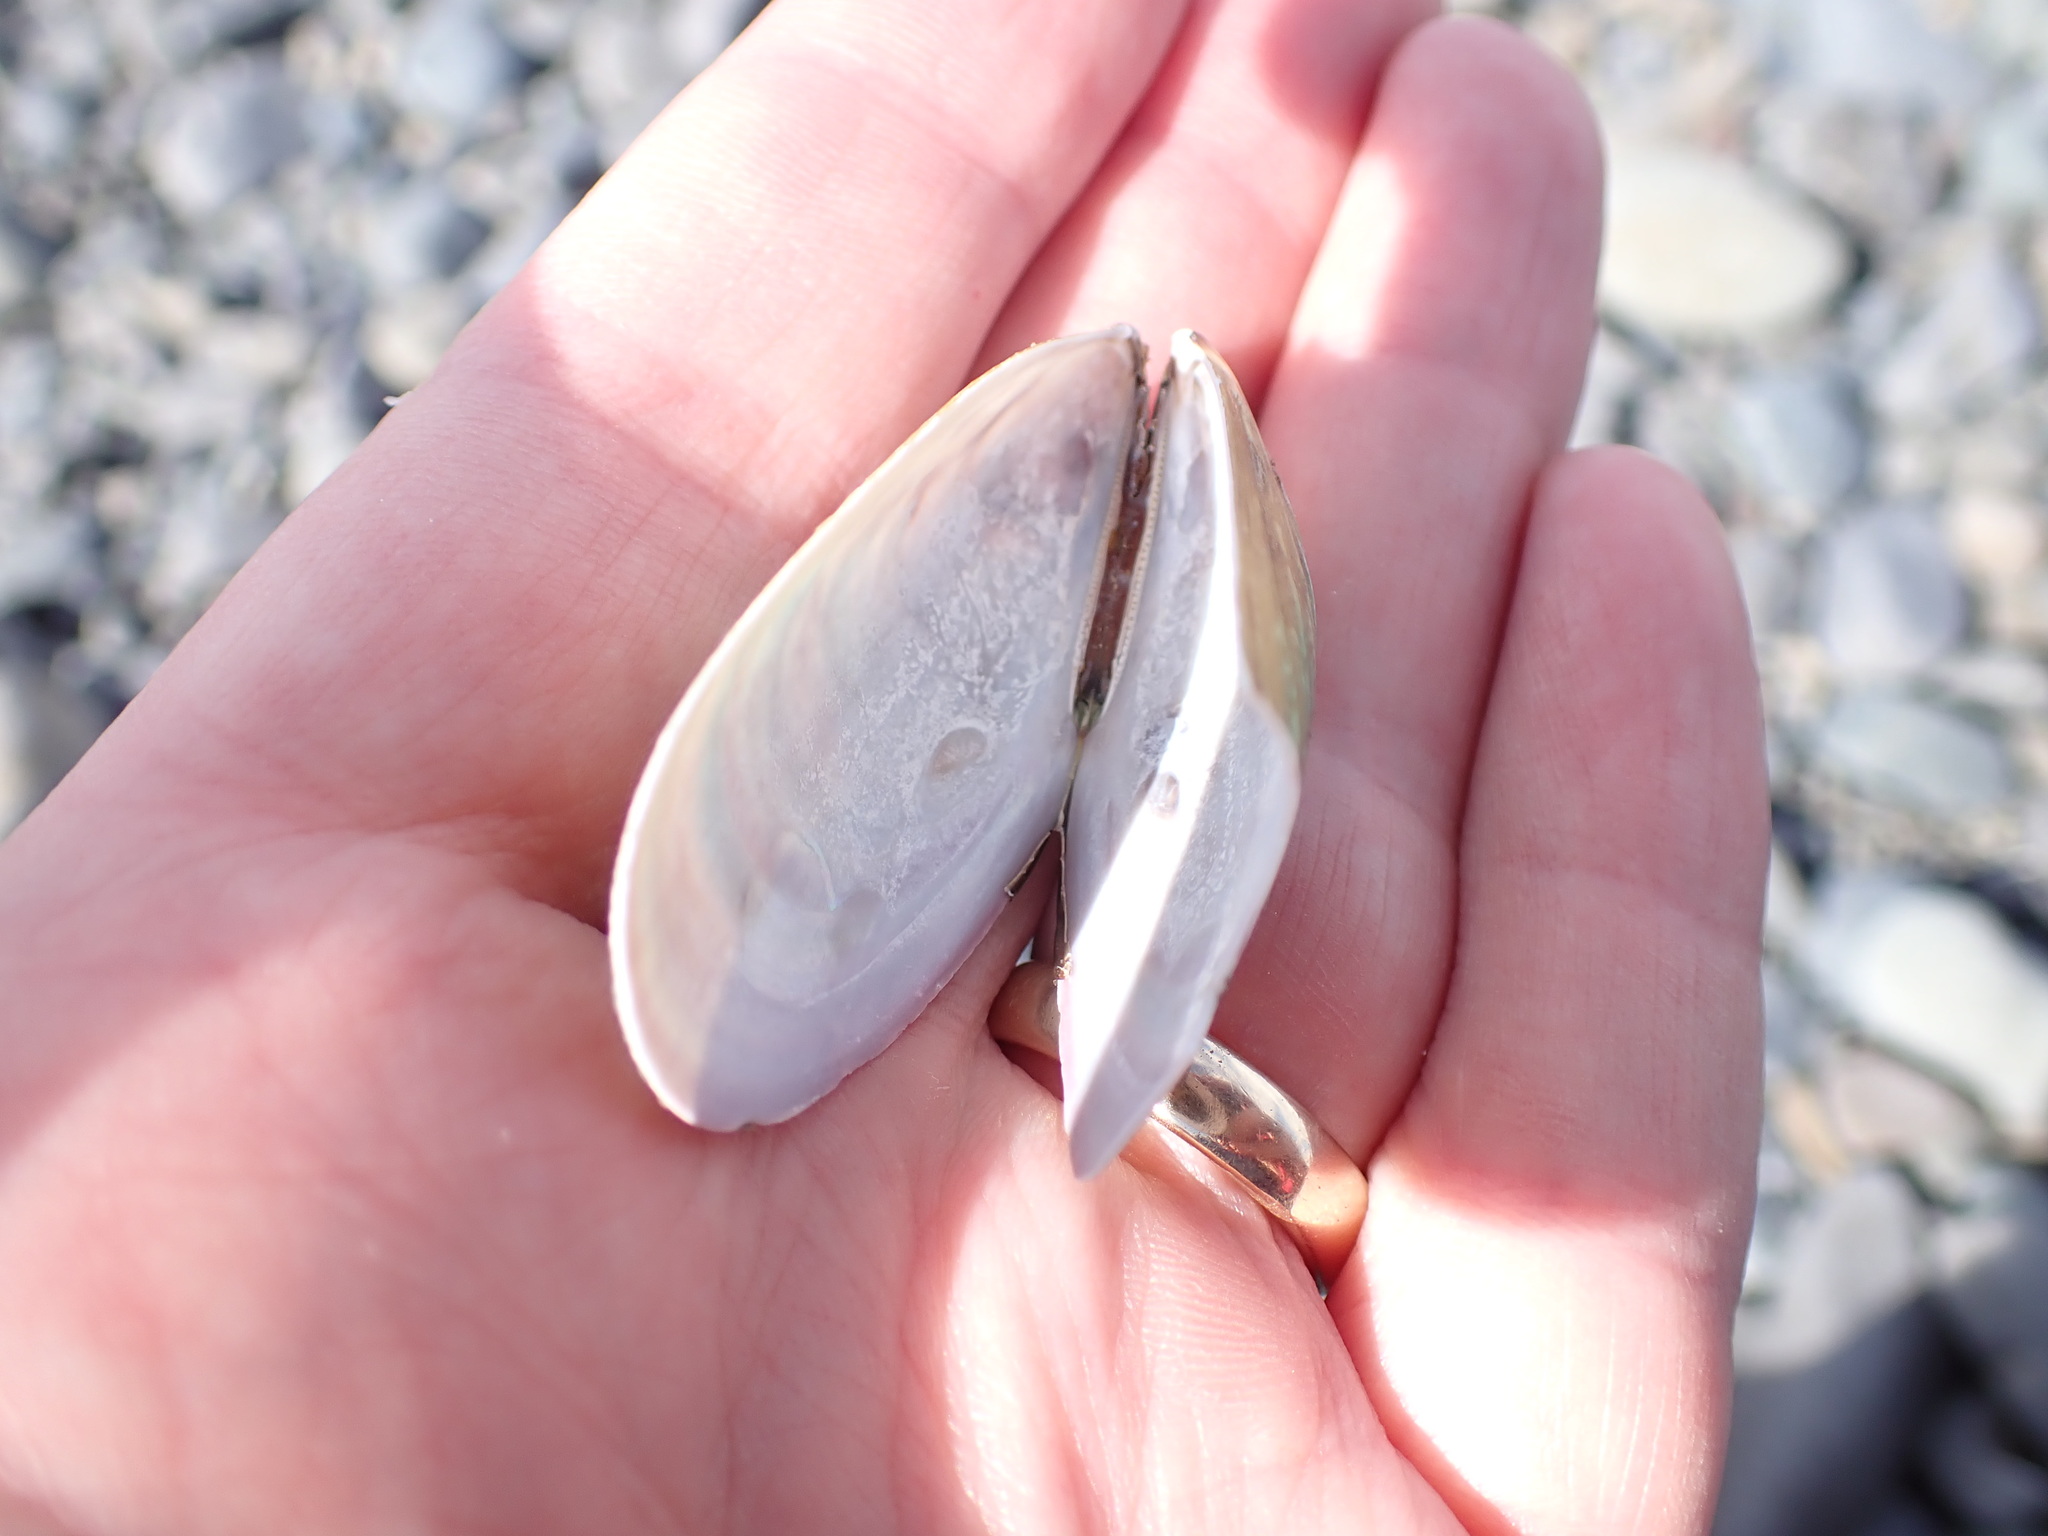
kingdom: Animalia
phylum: Mollusca
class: Bivalvia
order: Mytilida
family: Mytilidae
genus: Perna
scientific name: Perna canaliculus
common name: New zealand greenshelltm
